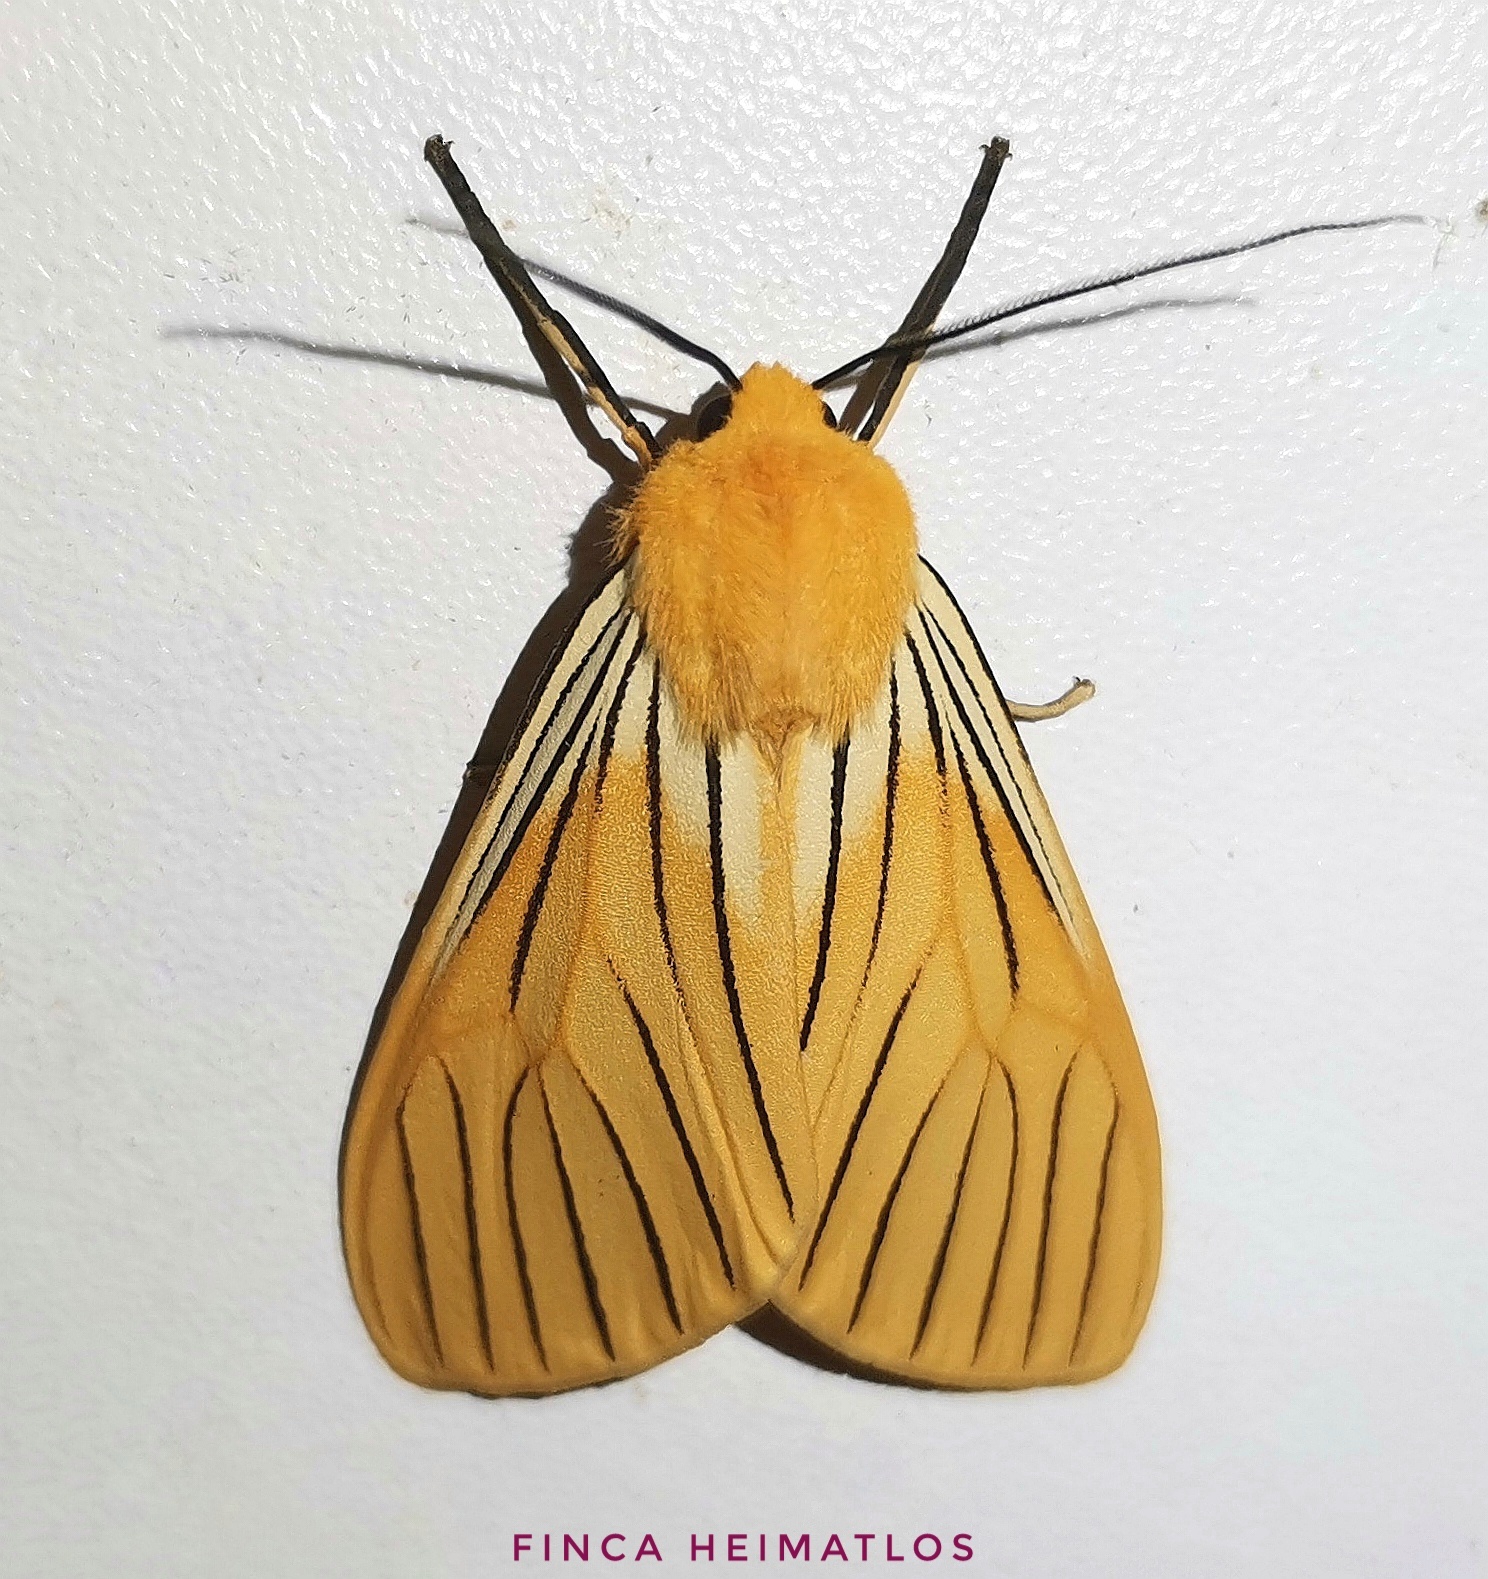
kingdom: Animalia
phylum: Arthropoda
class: Insecta
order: Lepidoptera
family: Erebidae
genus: Pseudischnocampa
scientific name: Pseudischnocampa
